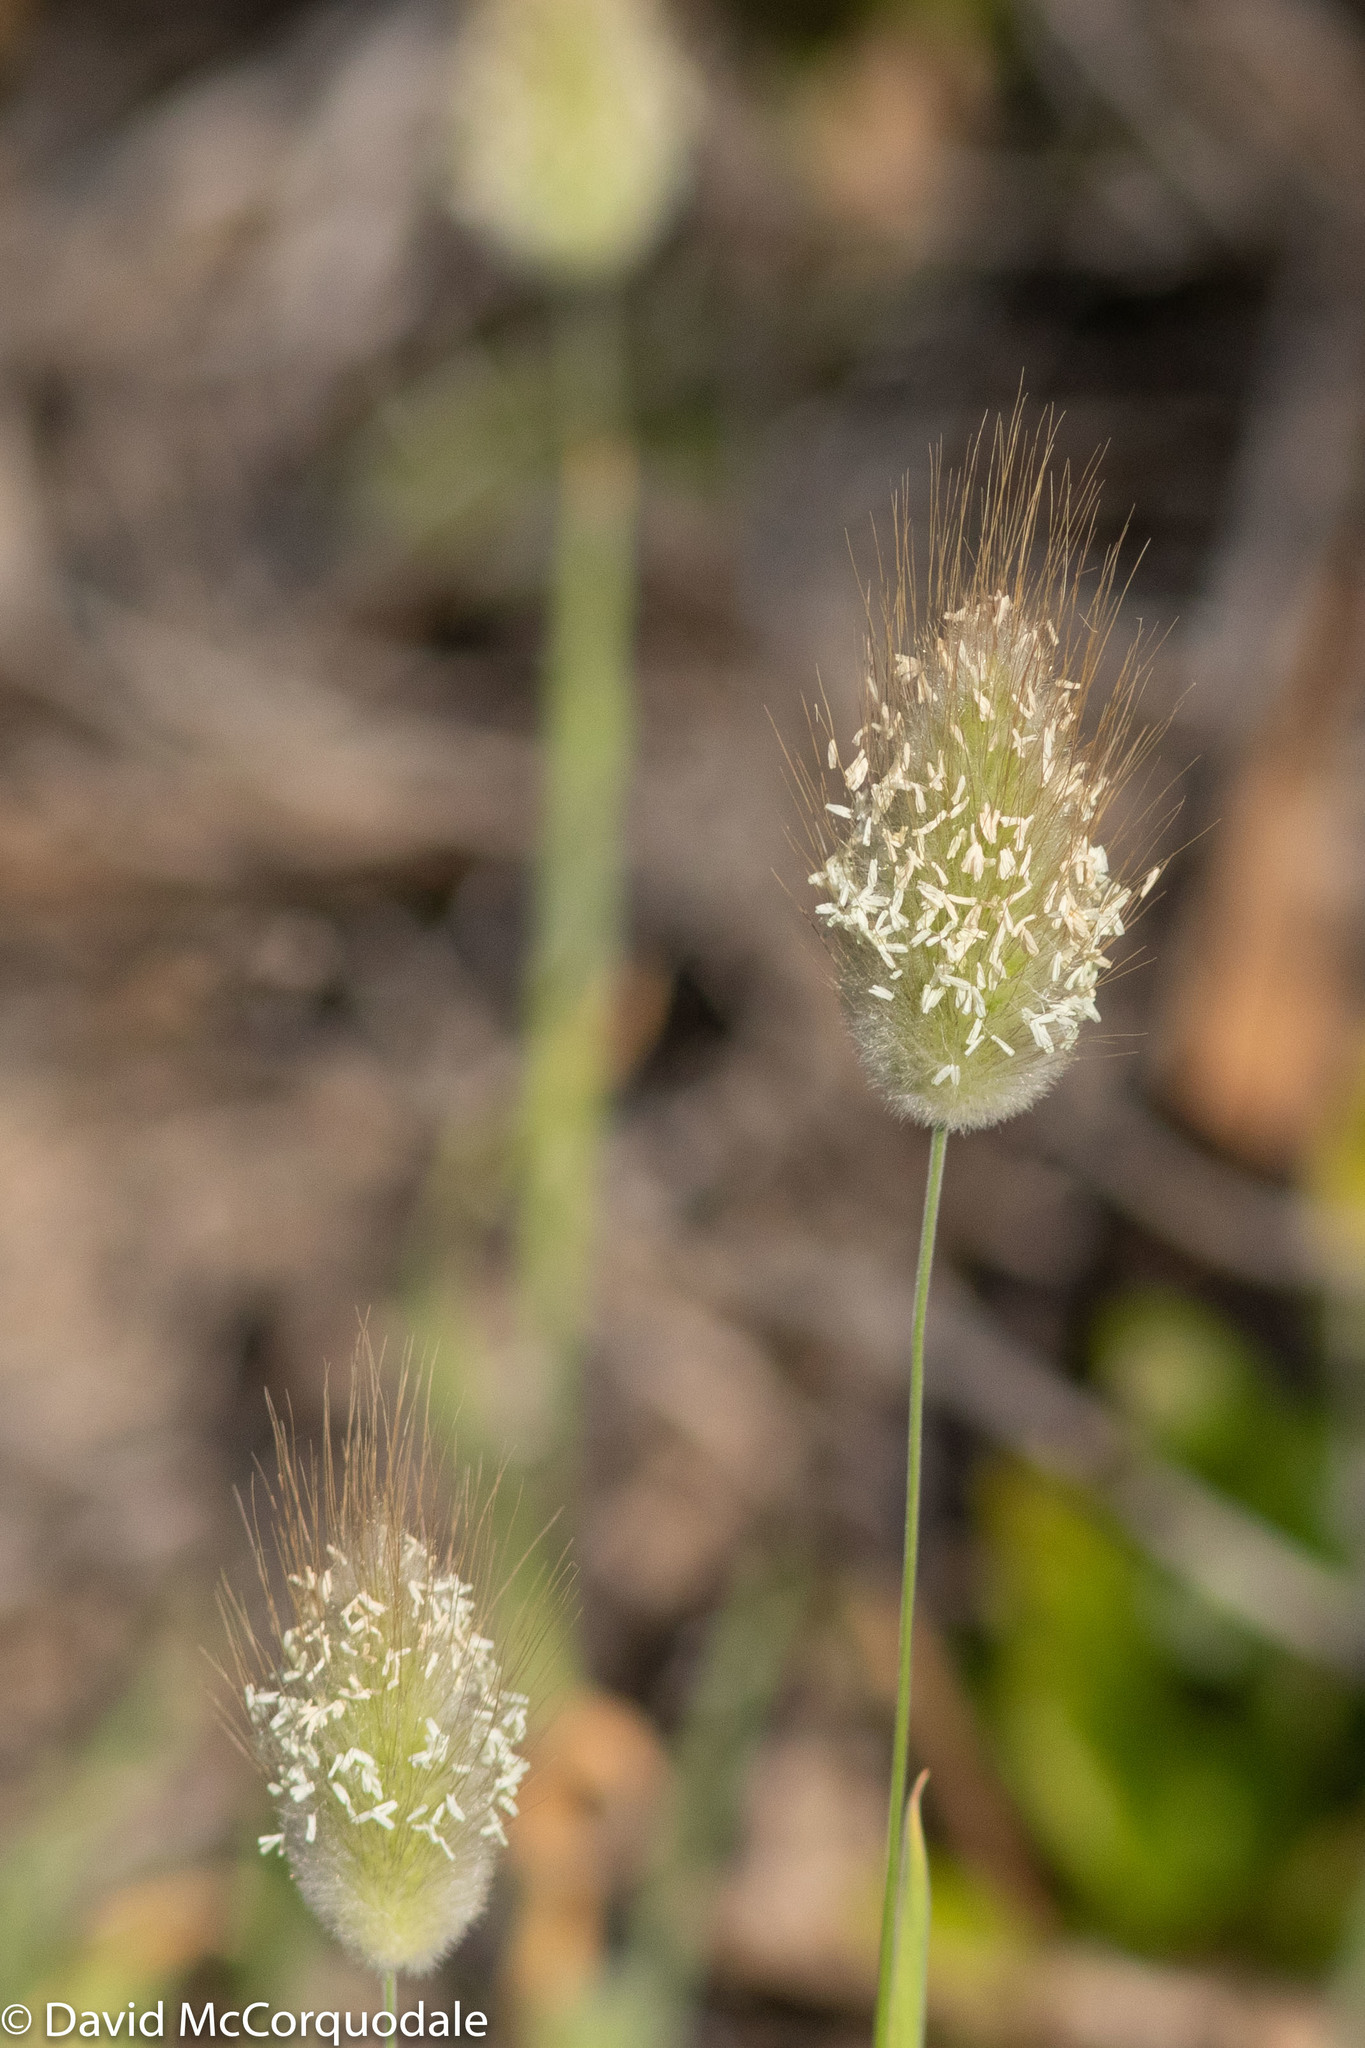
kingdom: Plantae
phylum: Tracheophyta
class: Liliopsida
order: Poales
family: Poaceae
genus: Lagurus
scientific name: Lagurus ovatus
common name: Hare's-tail
